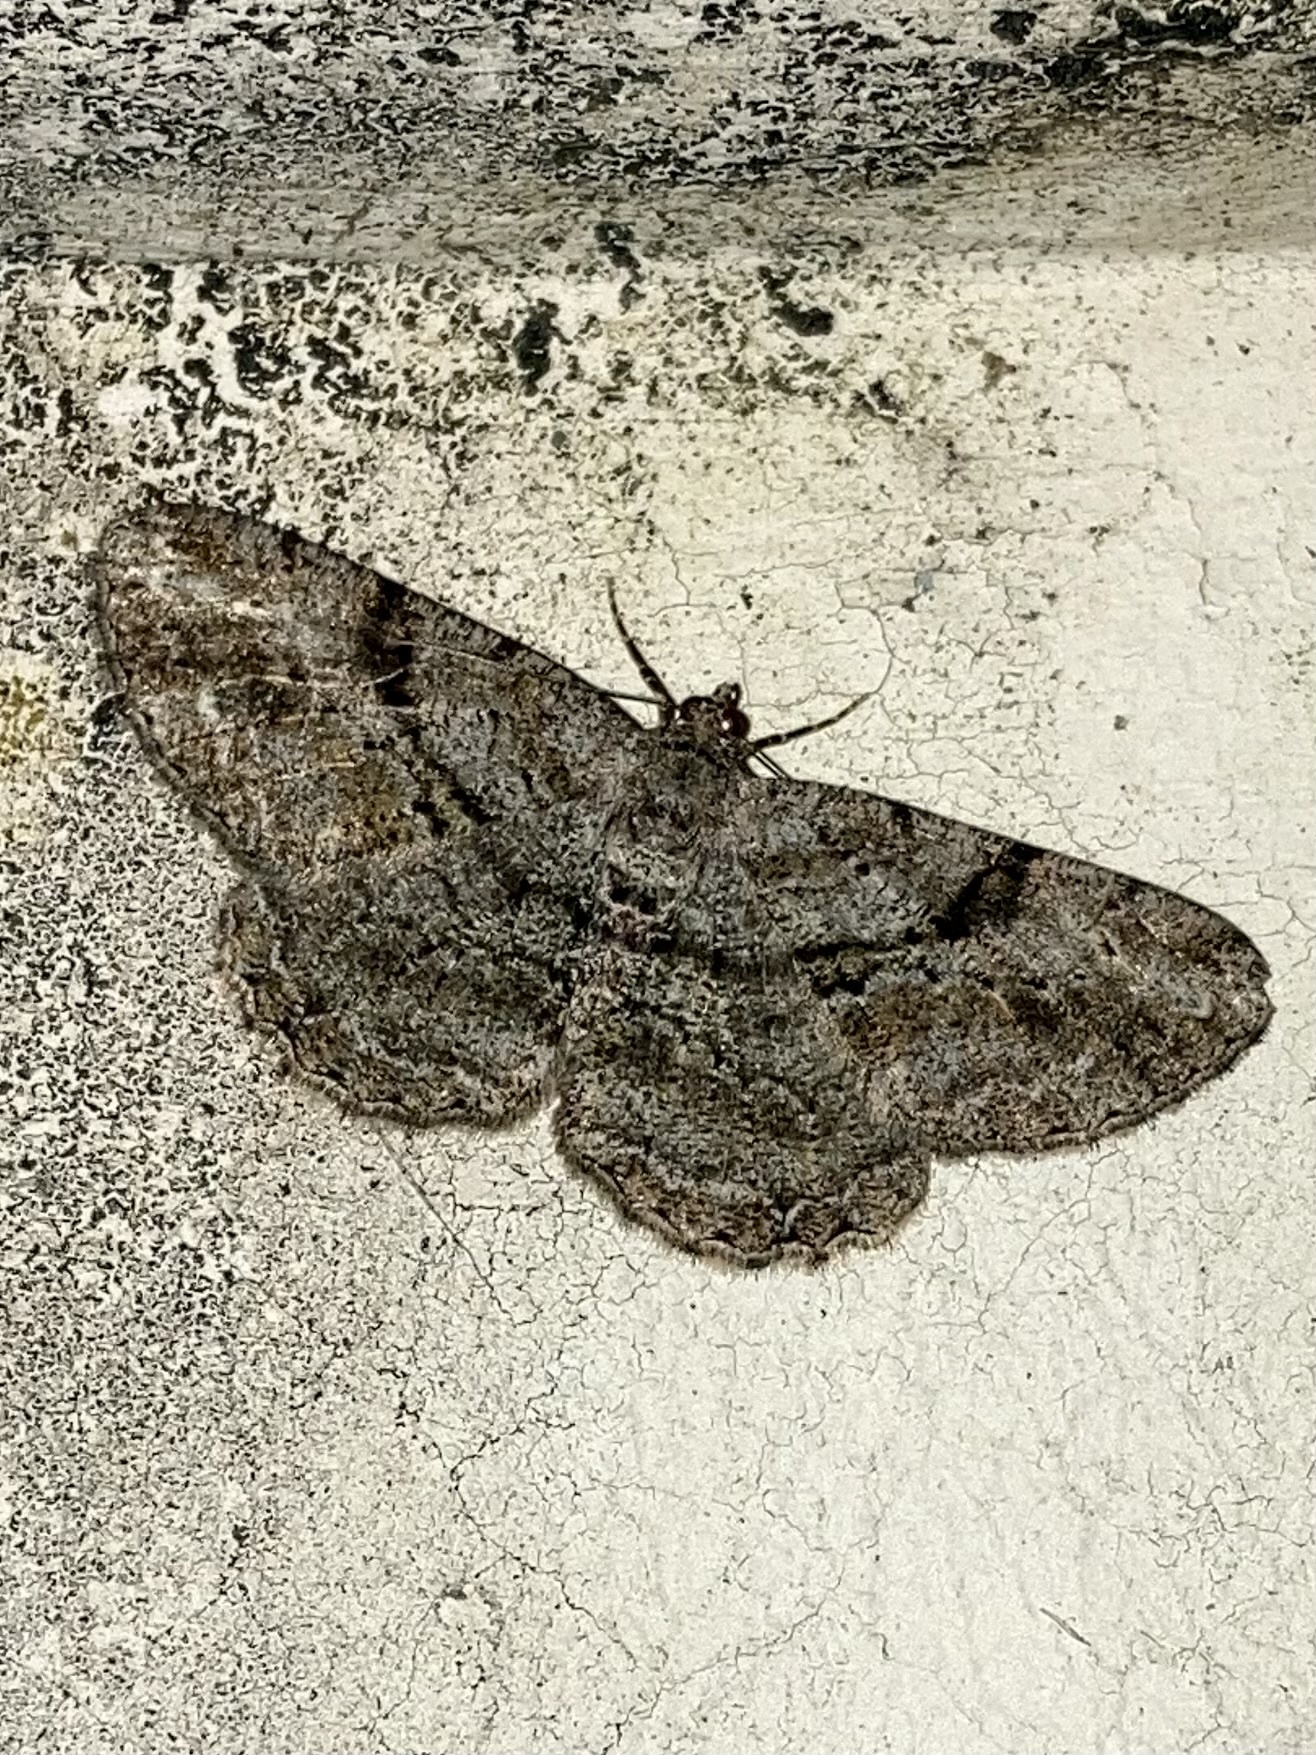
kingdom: Animalia
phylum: Arthropoda
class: Insecta
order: Lepidoptera
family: Geometridae
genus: Peribatodes
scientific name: Peribatodes rhomboidaria
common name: Willow beauty
